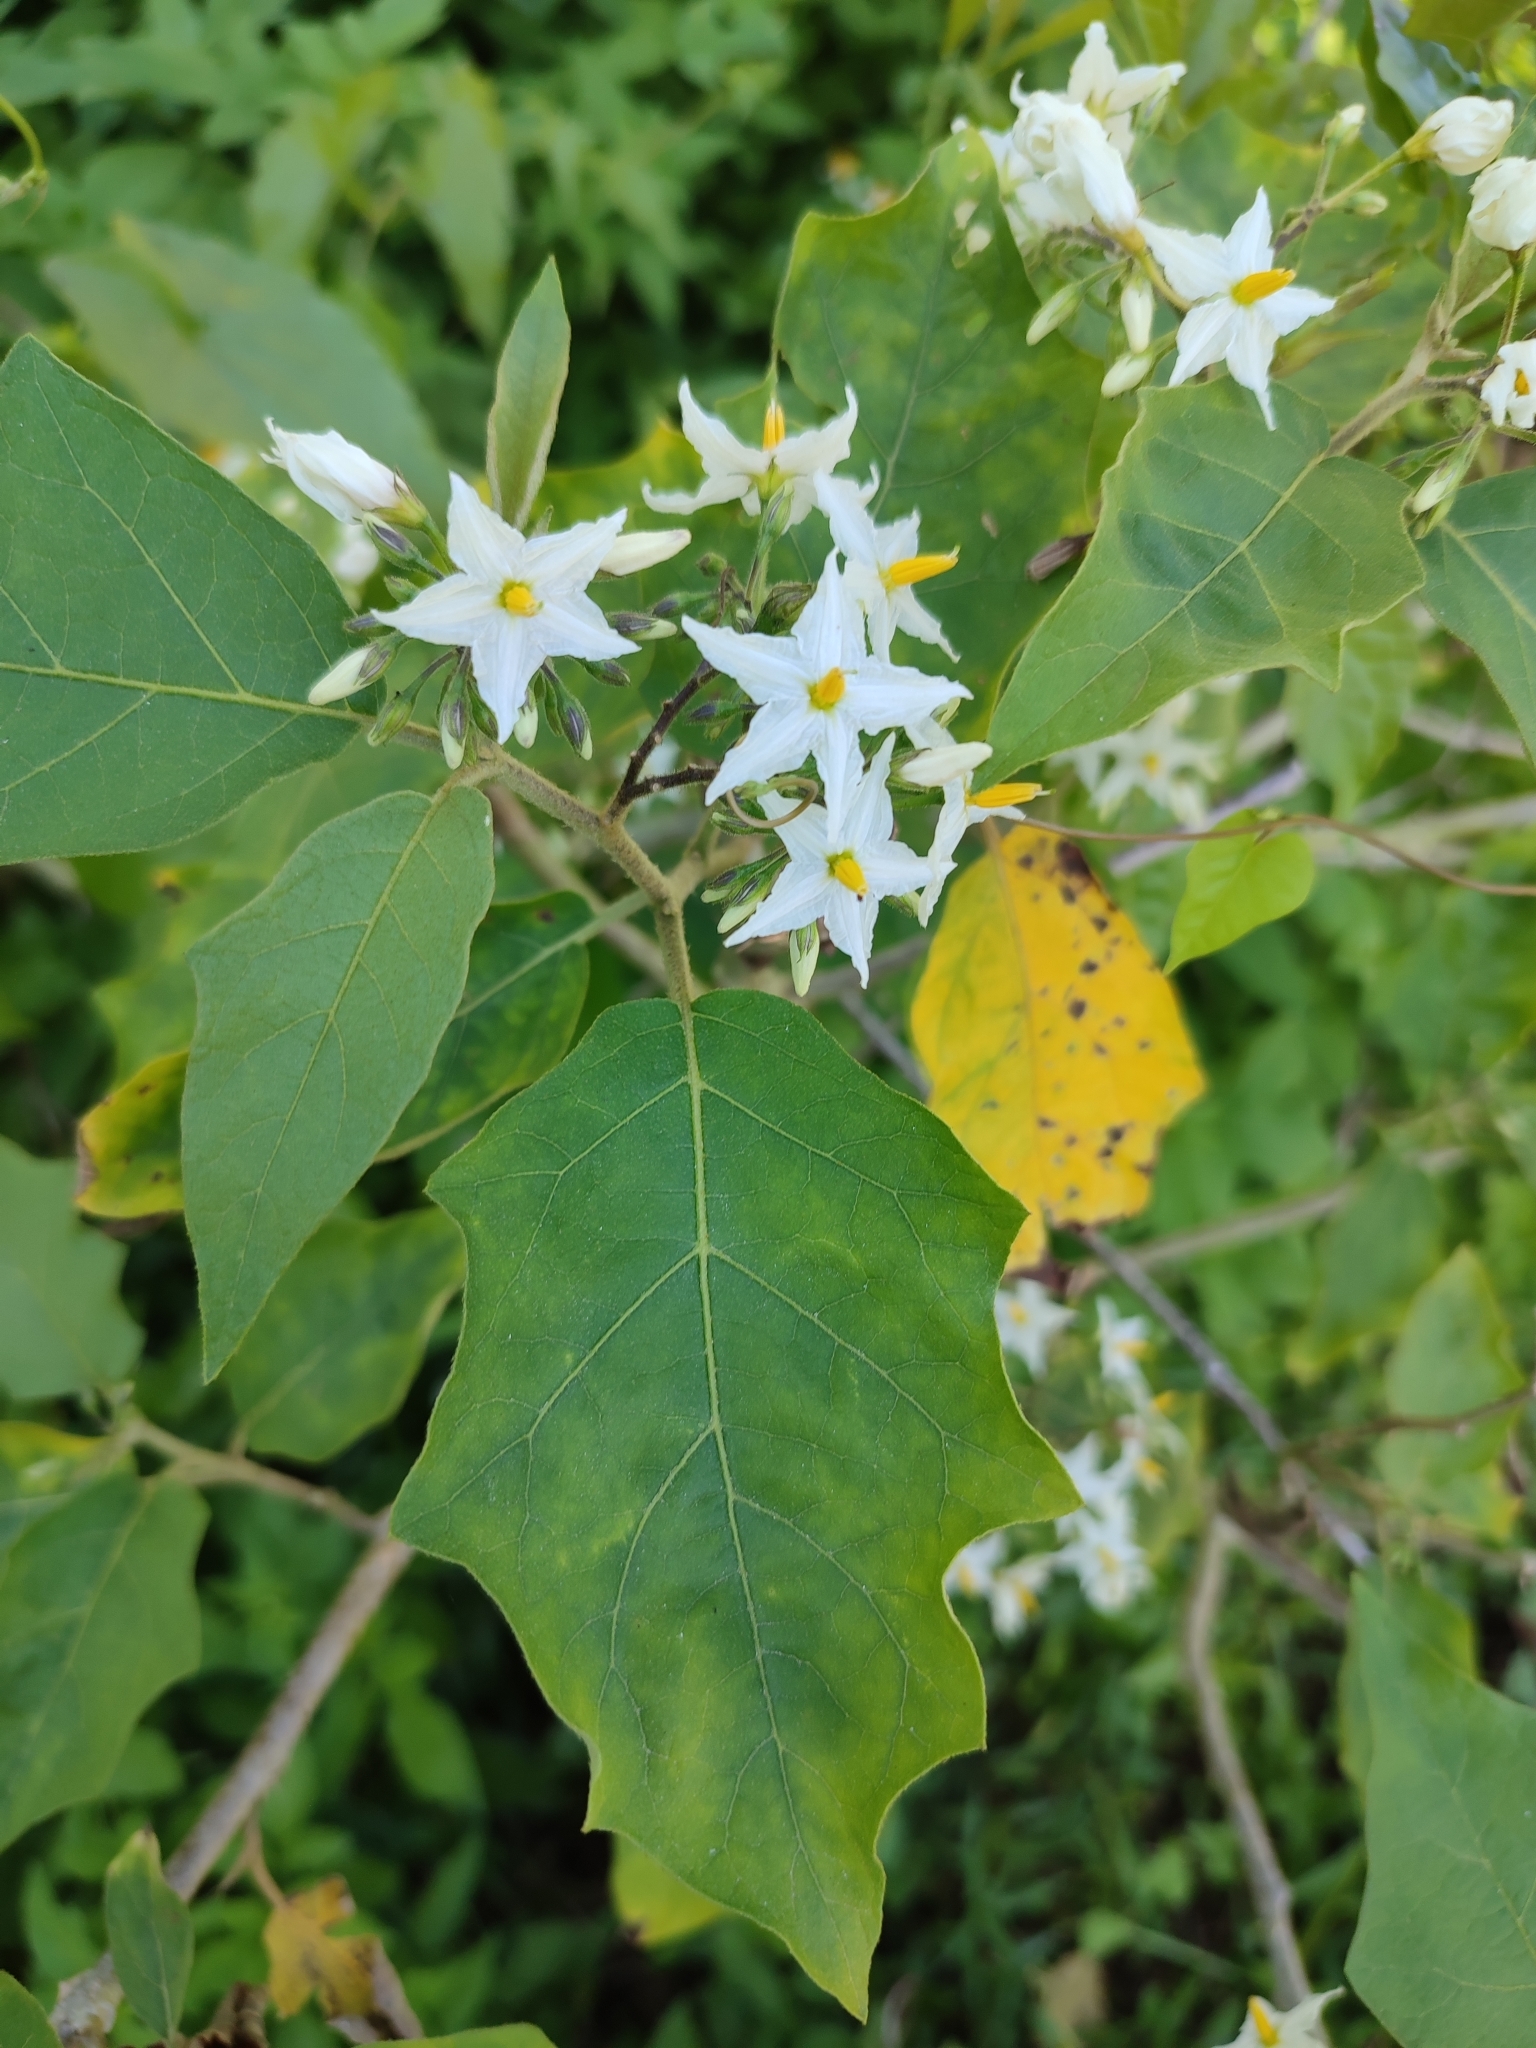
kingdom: Plantae
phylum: Tracheophyta
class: Magnoliopsida
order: Solanales
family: Solanaceae
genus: Solanum
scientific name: Solanum torvum
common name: Turkey berry
